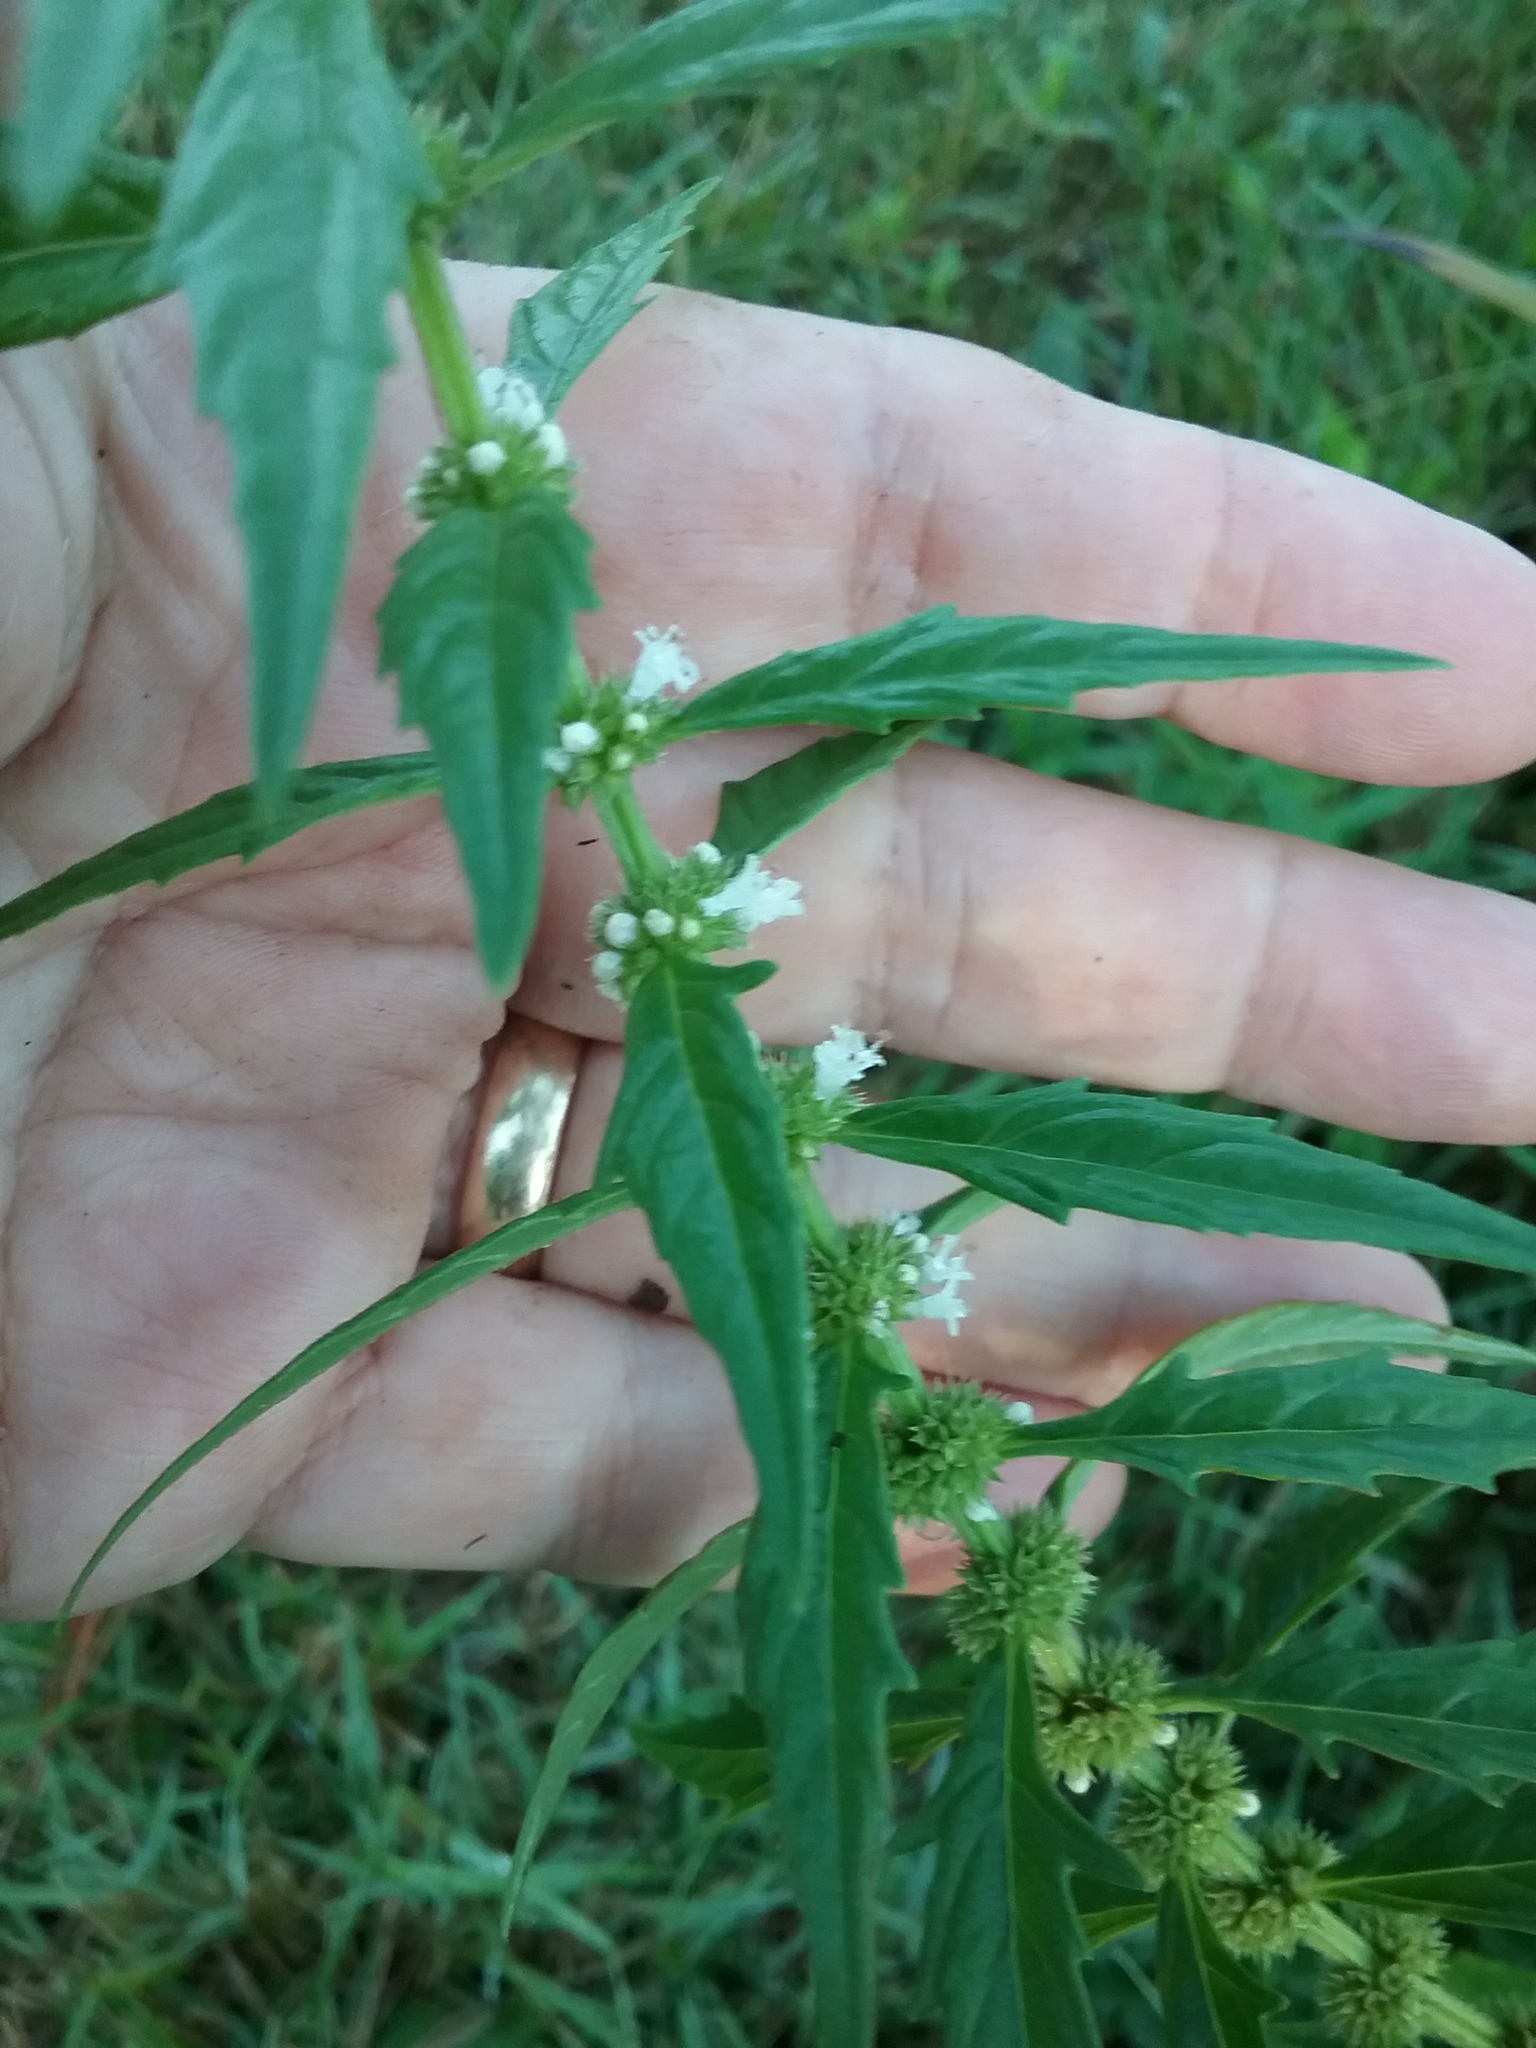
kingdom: Plantae
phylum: Tracheophyta
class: Magnoliopsida
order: Lamiales
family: Lamiaceae
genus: Lycopus
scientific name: Lycopus americanus
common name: American bugleweed
